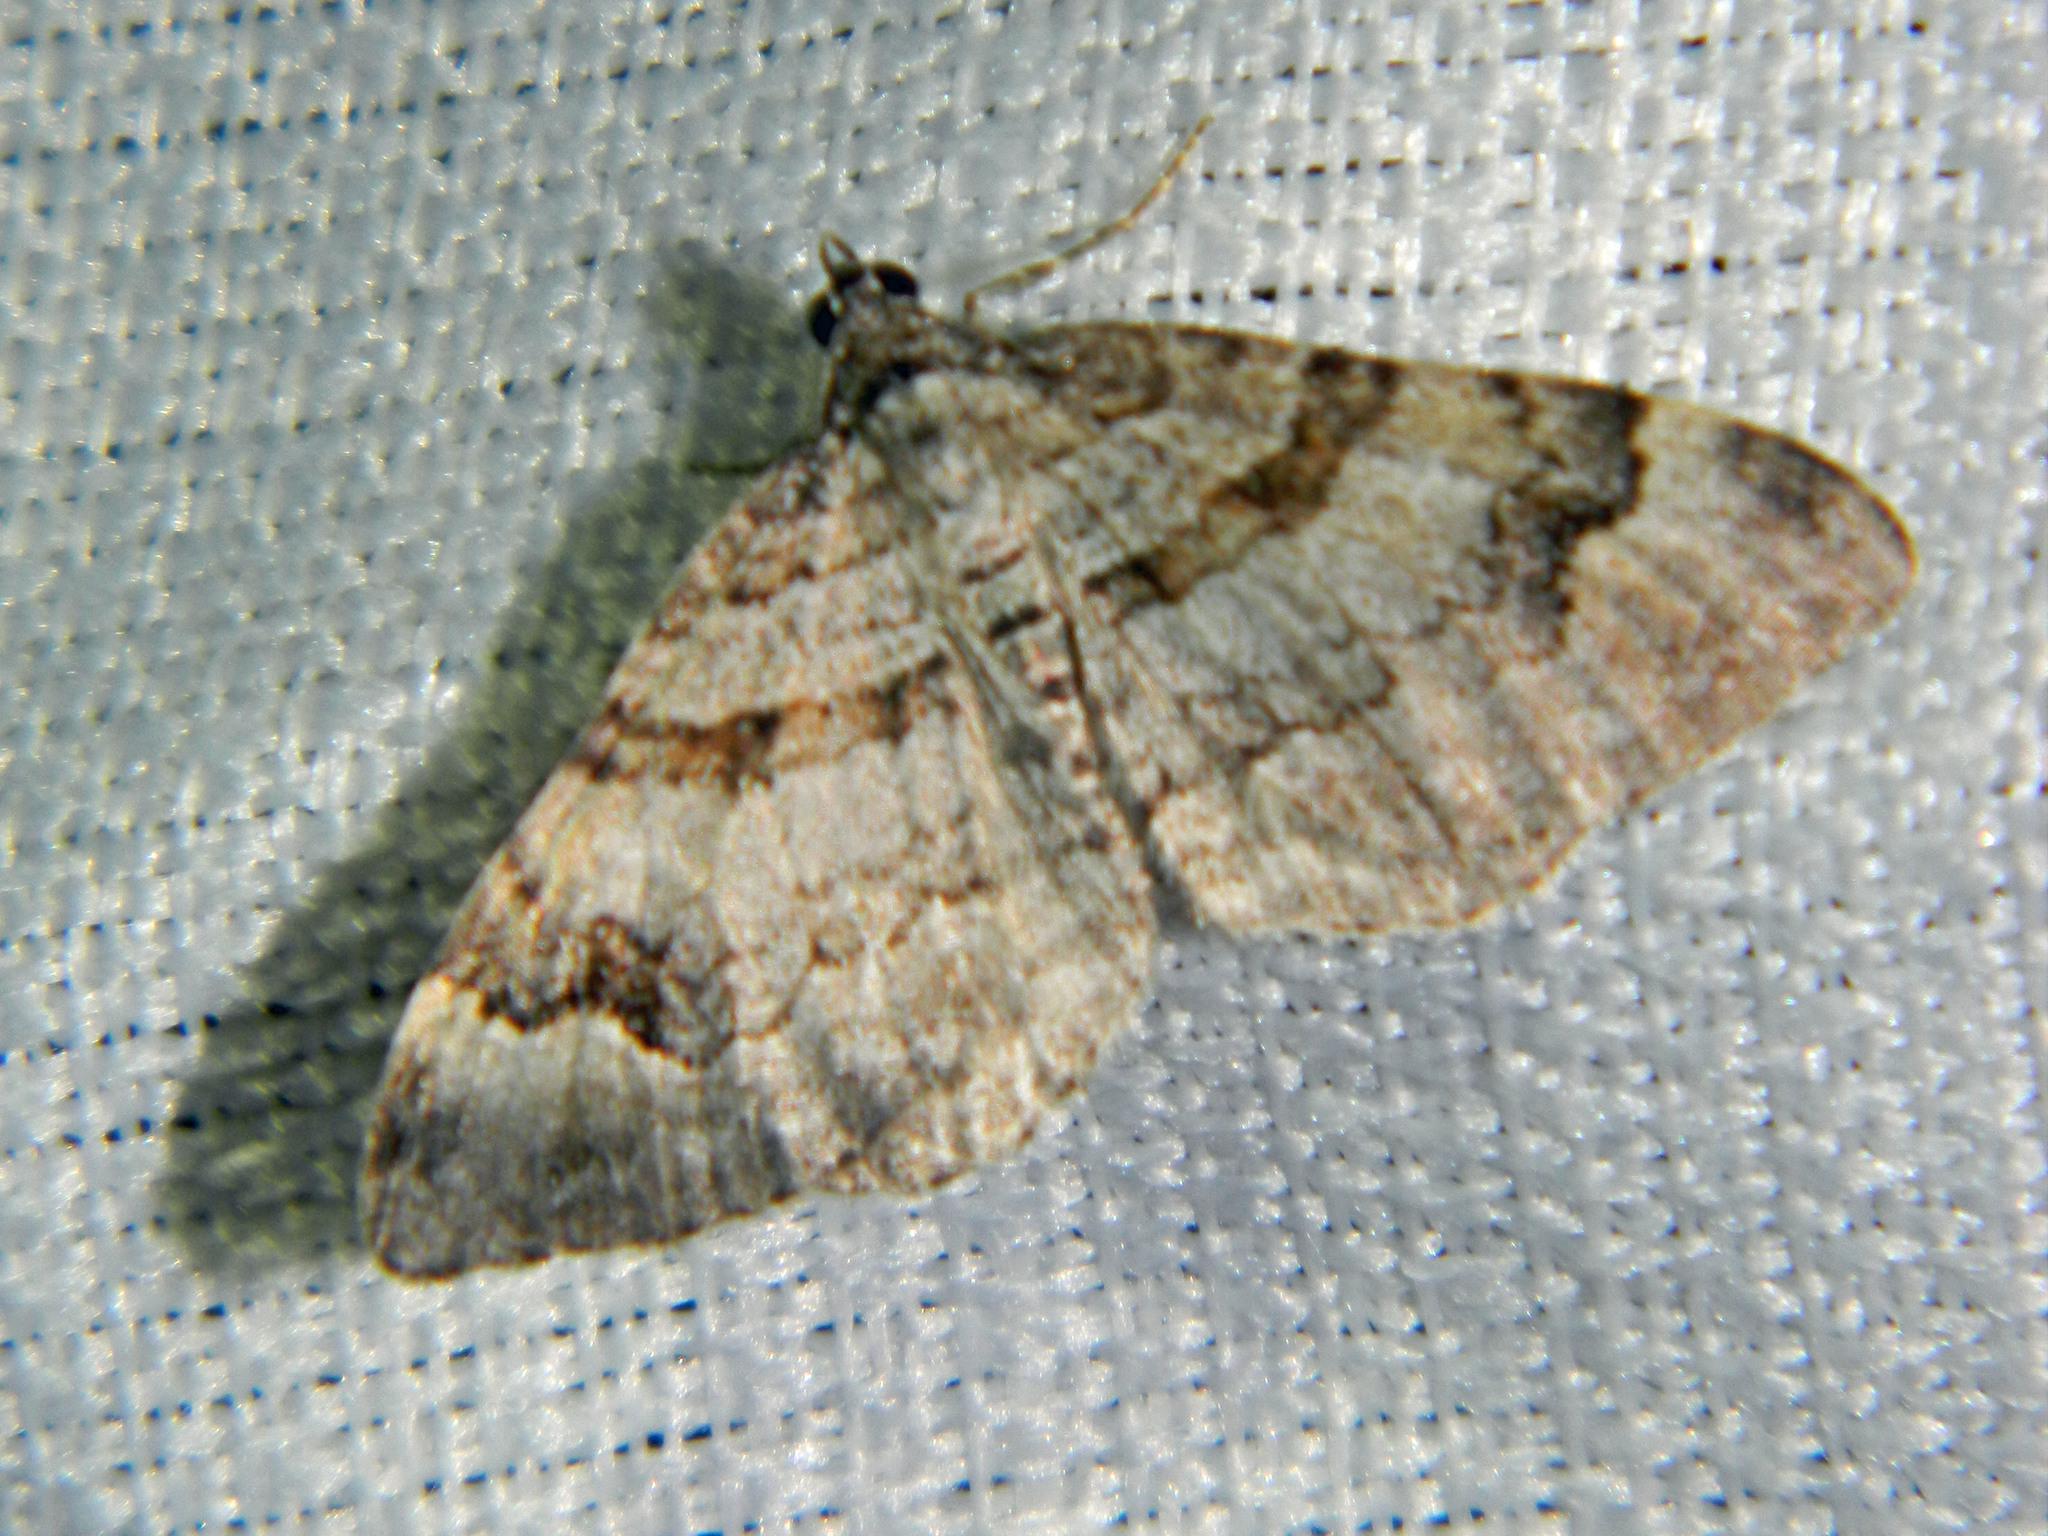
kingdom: Animalia
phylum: Arthropoda
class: Insecta
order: Lepidoptera
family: Geometridae
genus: Xanthorhoe
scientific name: Xanthorhoe abrasaria
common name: Northern carpet
